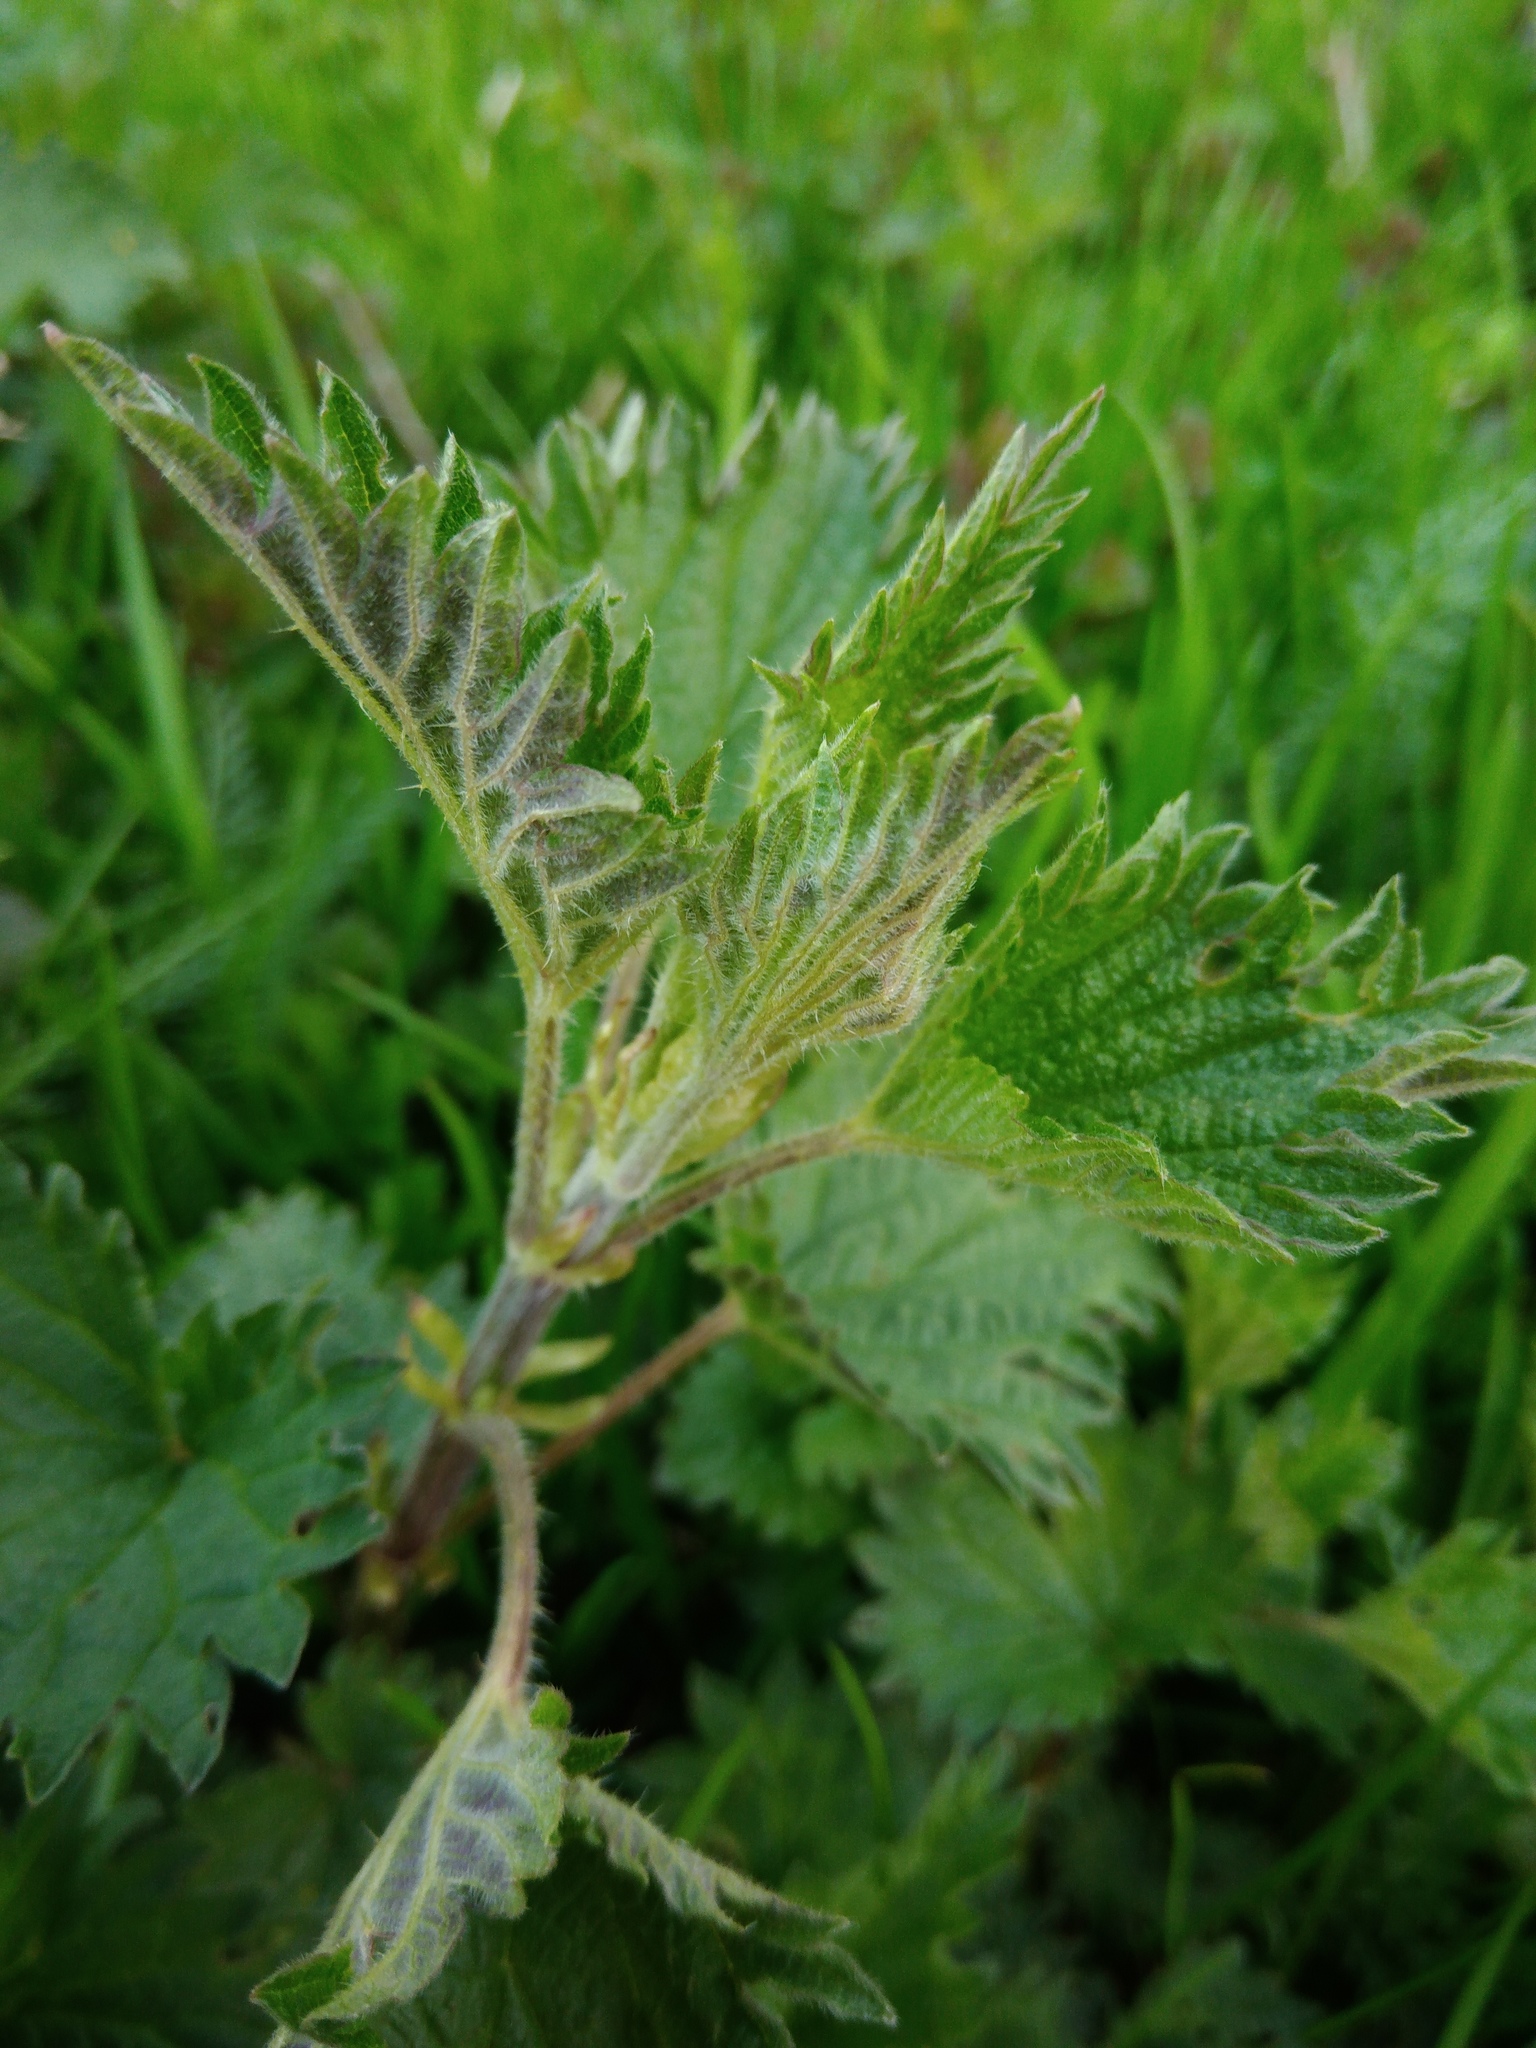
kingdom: Plantae
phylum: Tracheophyta
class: Magnoliopsida
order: Rosales
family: Urticaceae
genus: Urtica
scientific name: Urtica dioica
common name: Common nettle
